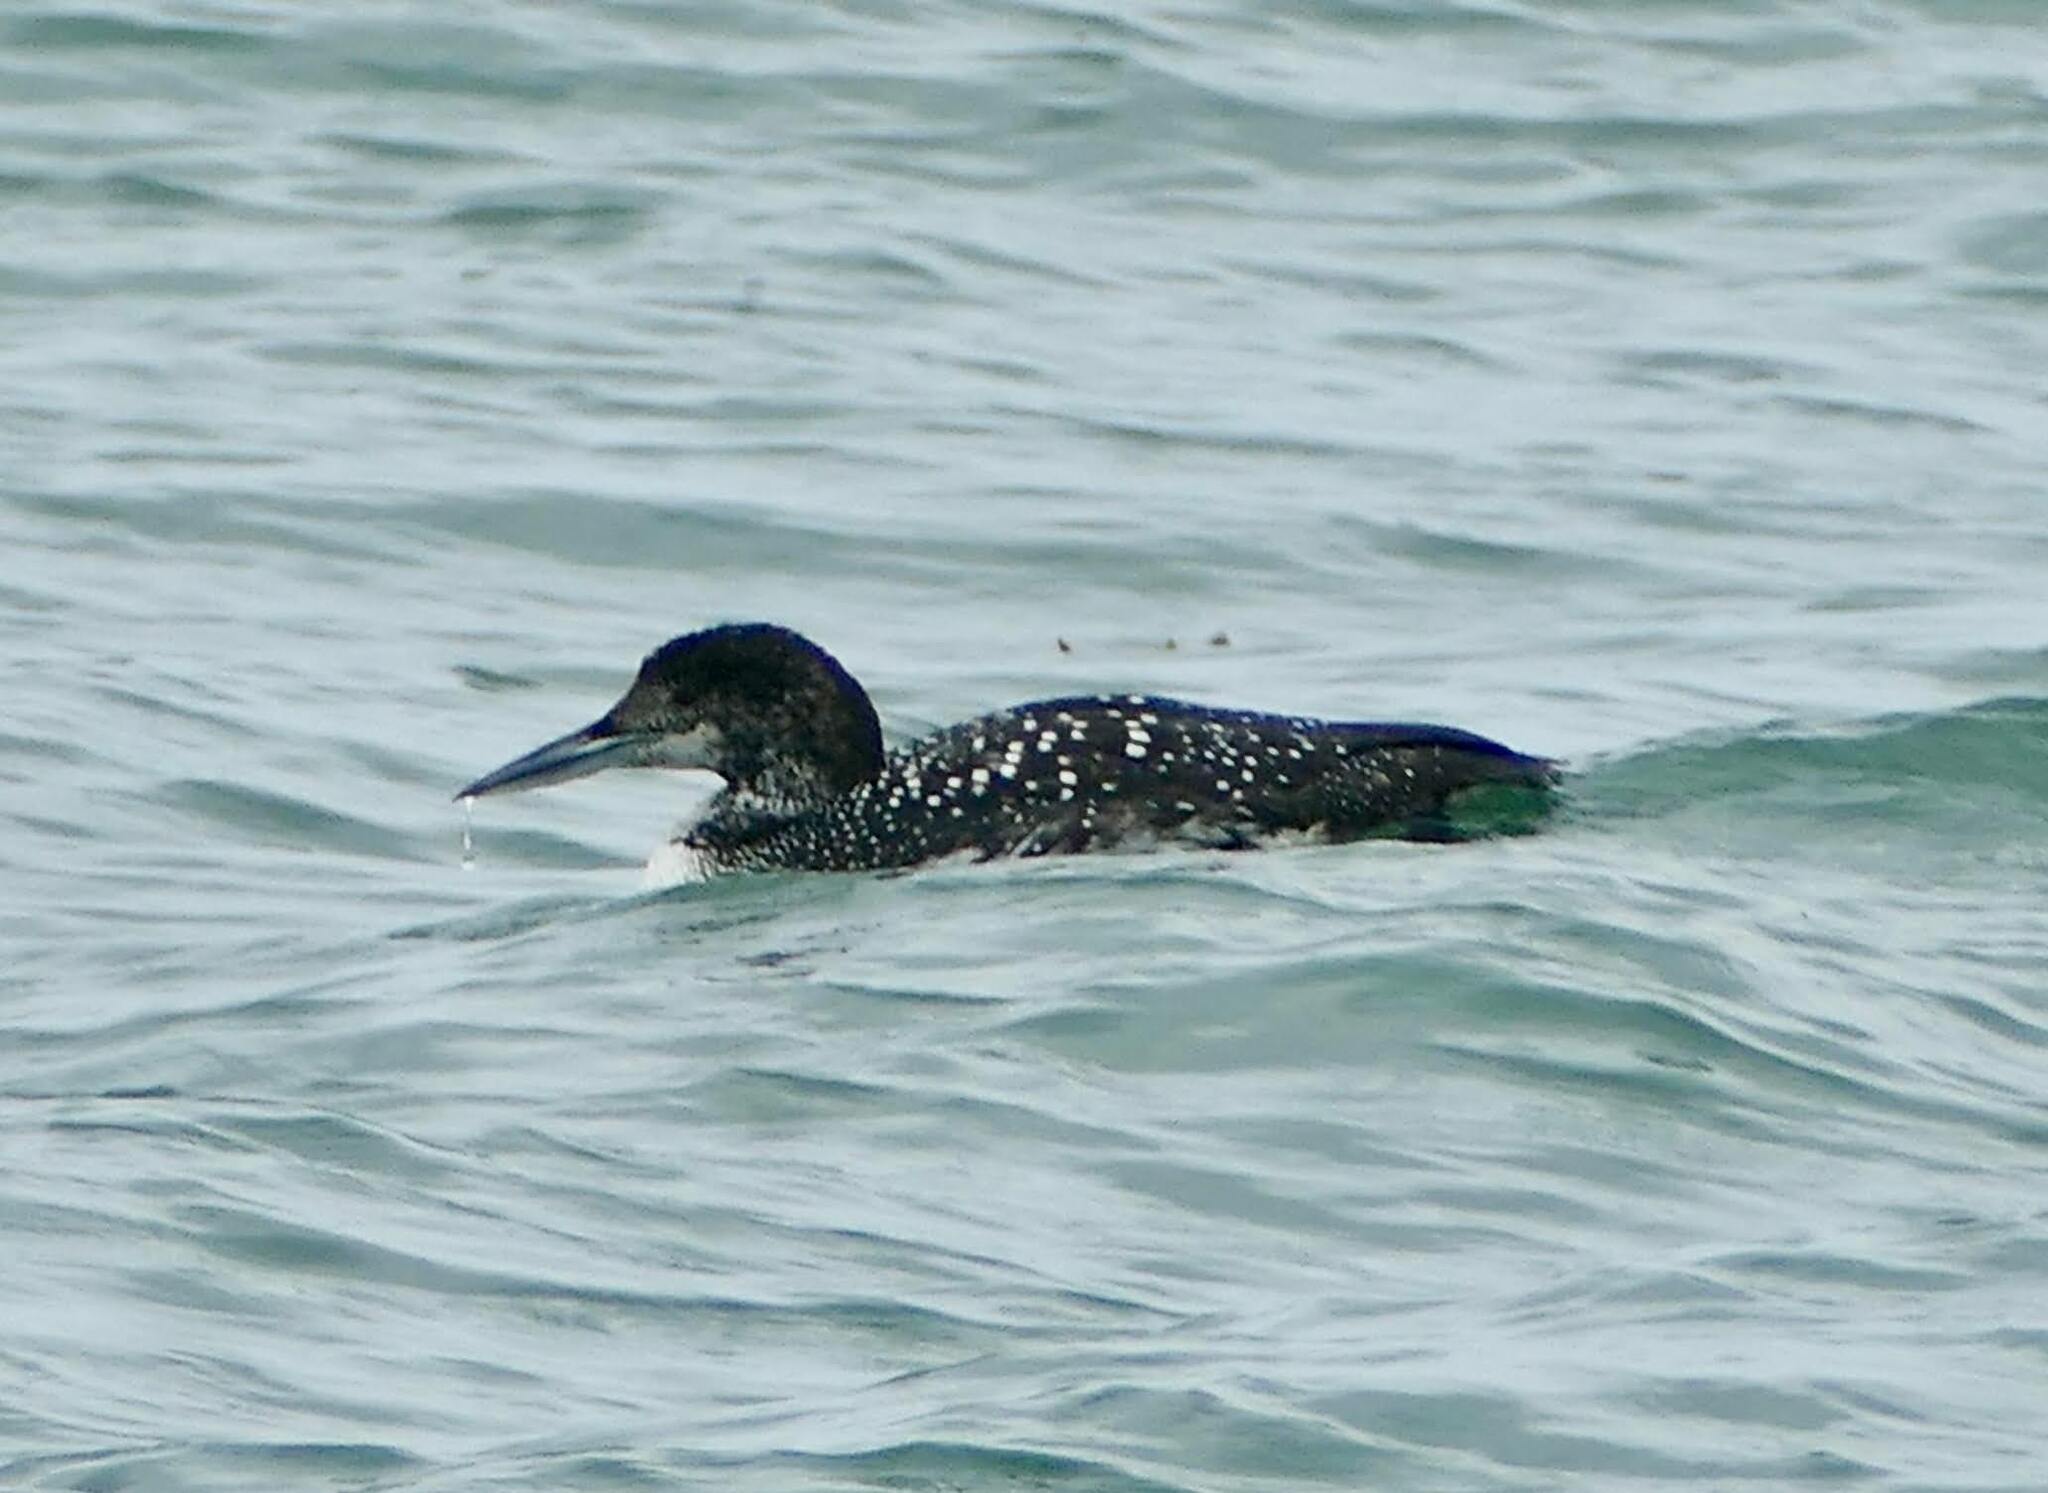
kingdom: Animalia
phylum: Chordata
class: Aves
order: Gaviiformes
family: Gaviidae
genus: Gavia
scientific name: Gavia immer
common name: Common loon
